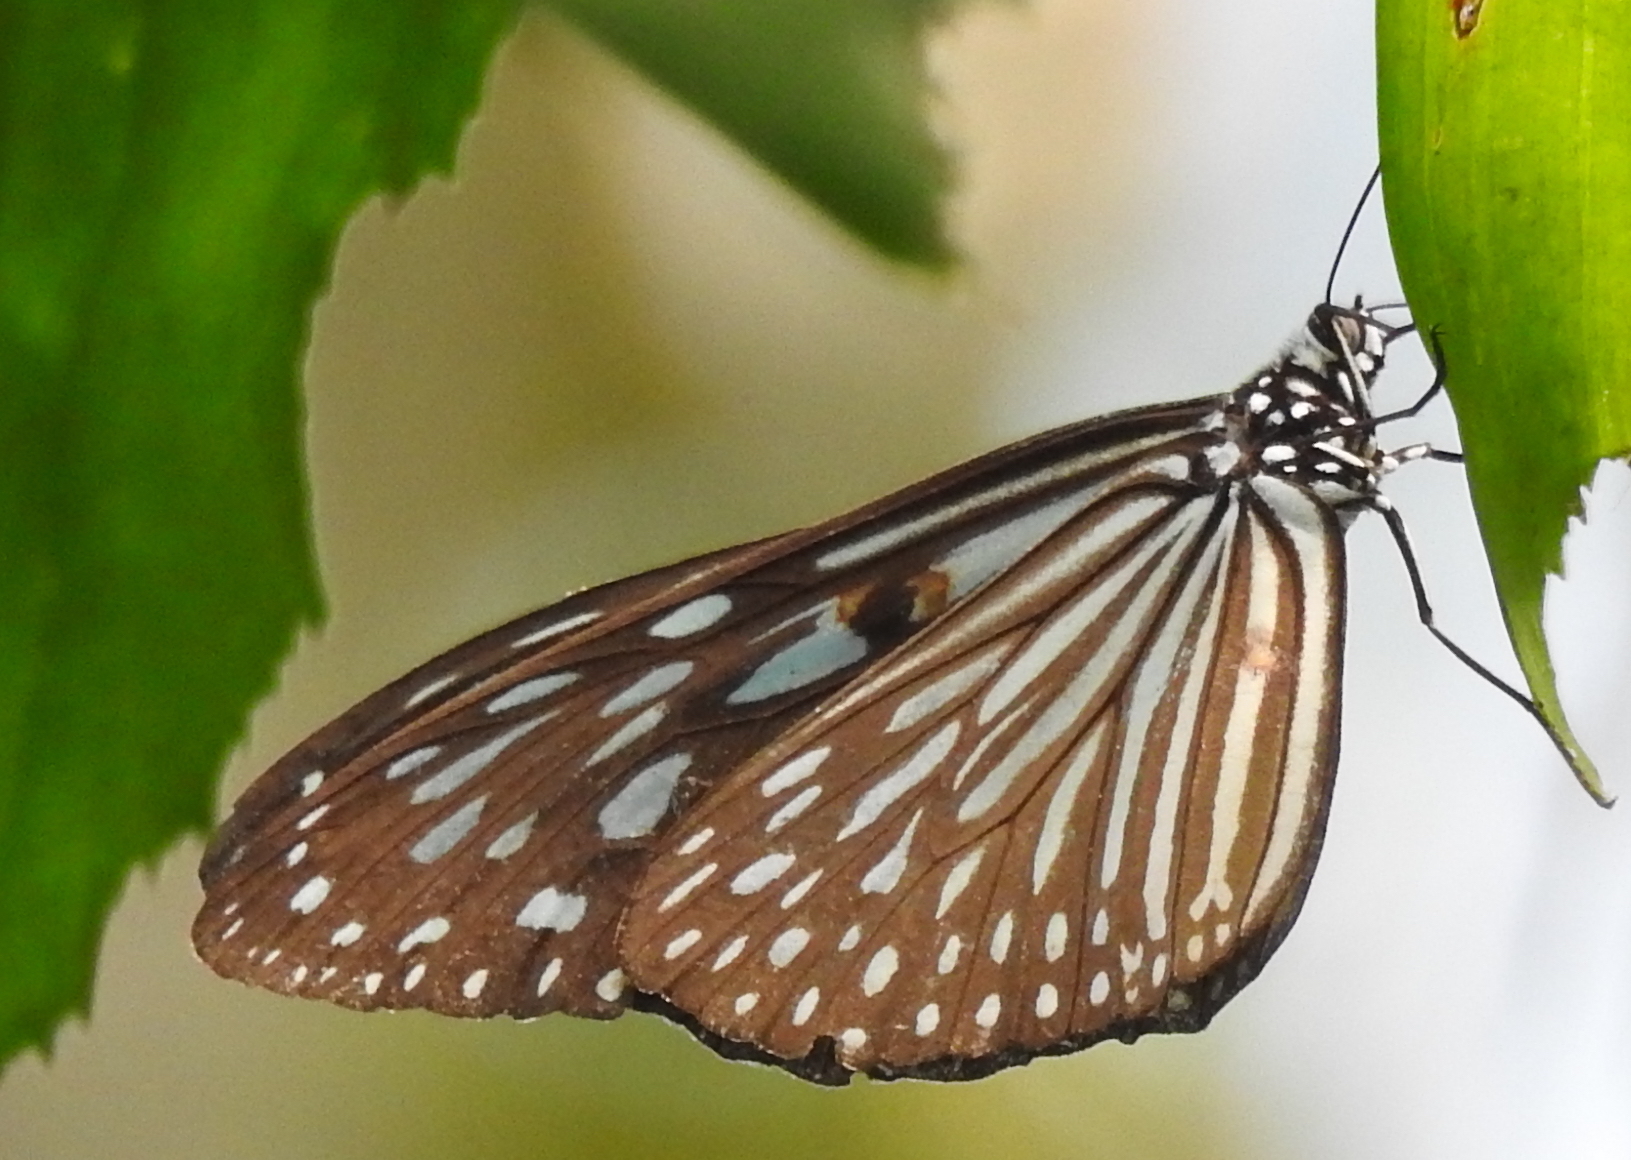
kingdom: Animalia
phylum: Arthropoda
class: Insecta
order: Lepidoptera
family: Nymphalidae
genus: Ideopsis
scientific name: Ideopsis vulgaris
